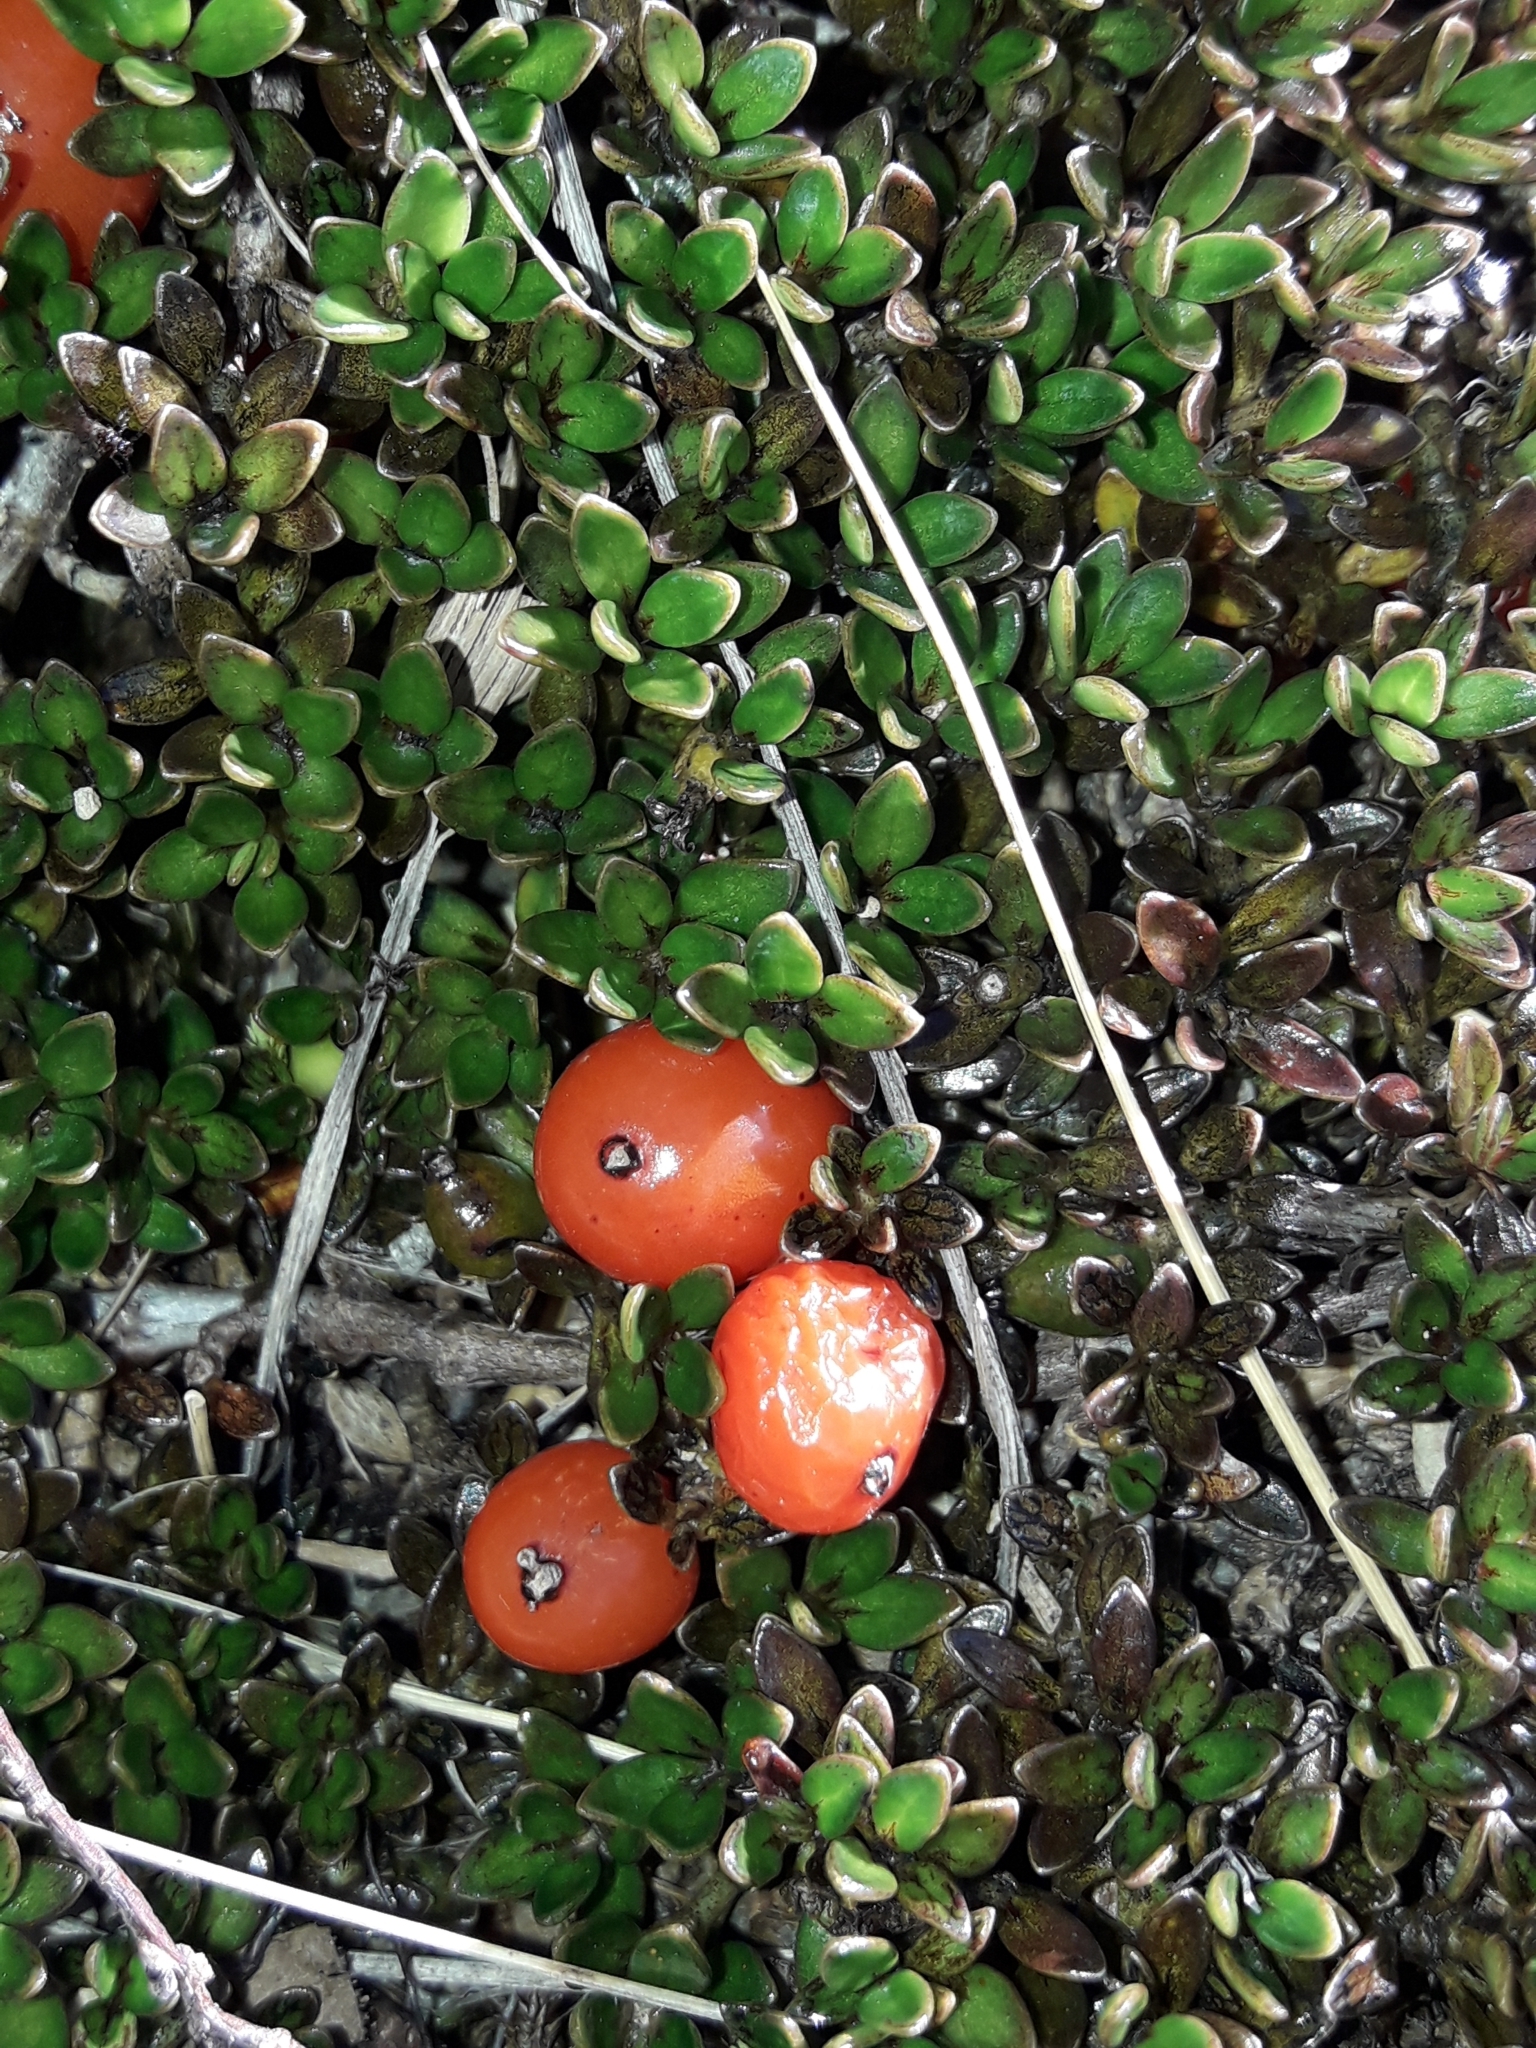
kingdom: Plantae
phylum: Tracheophyta
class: Magnoliopsida
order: Gentianales
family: Rubiaceae
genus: Coprosma
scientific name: Coprosma perpusilla
